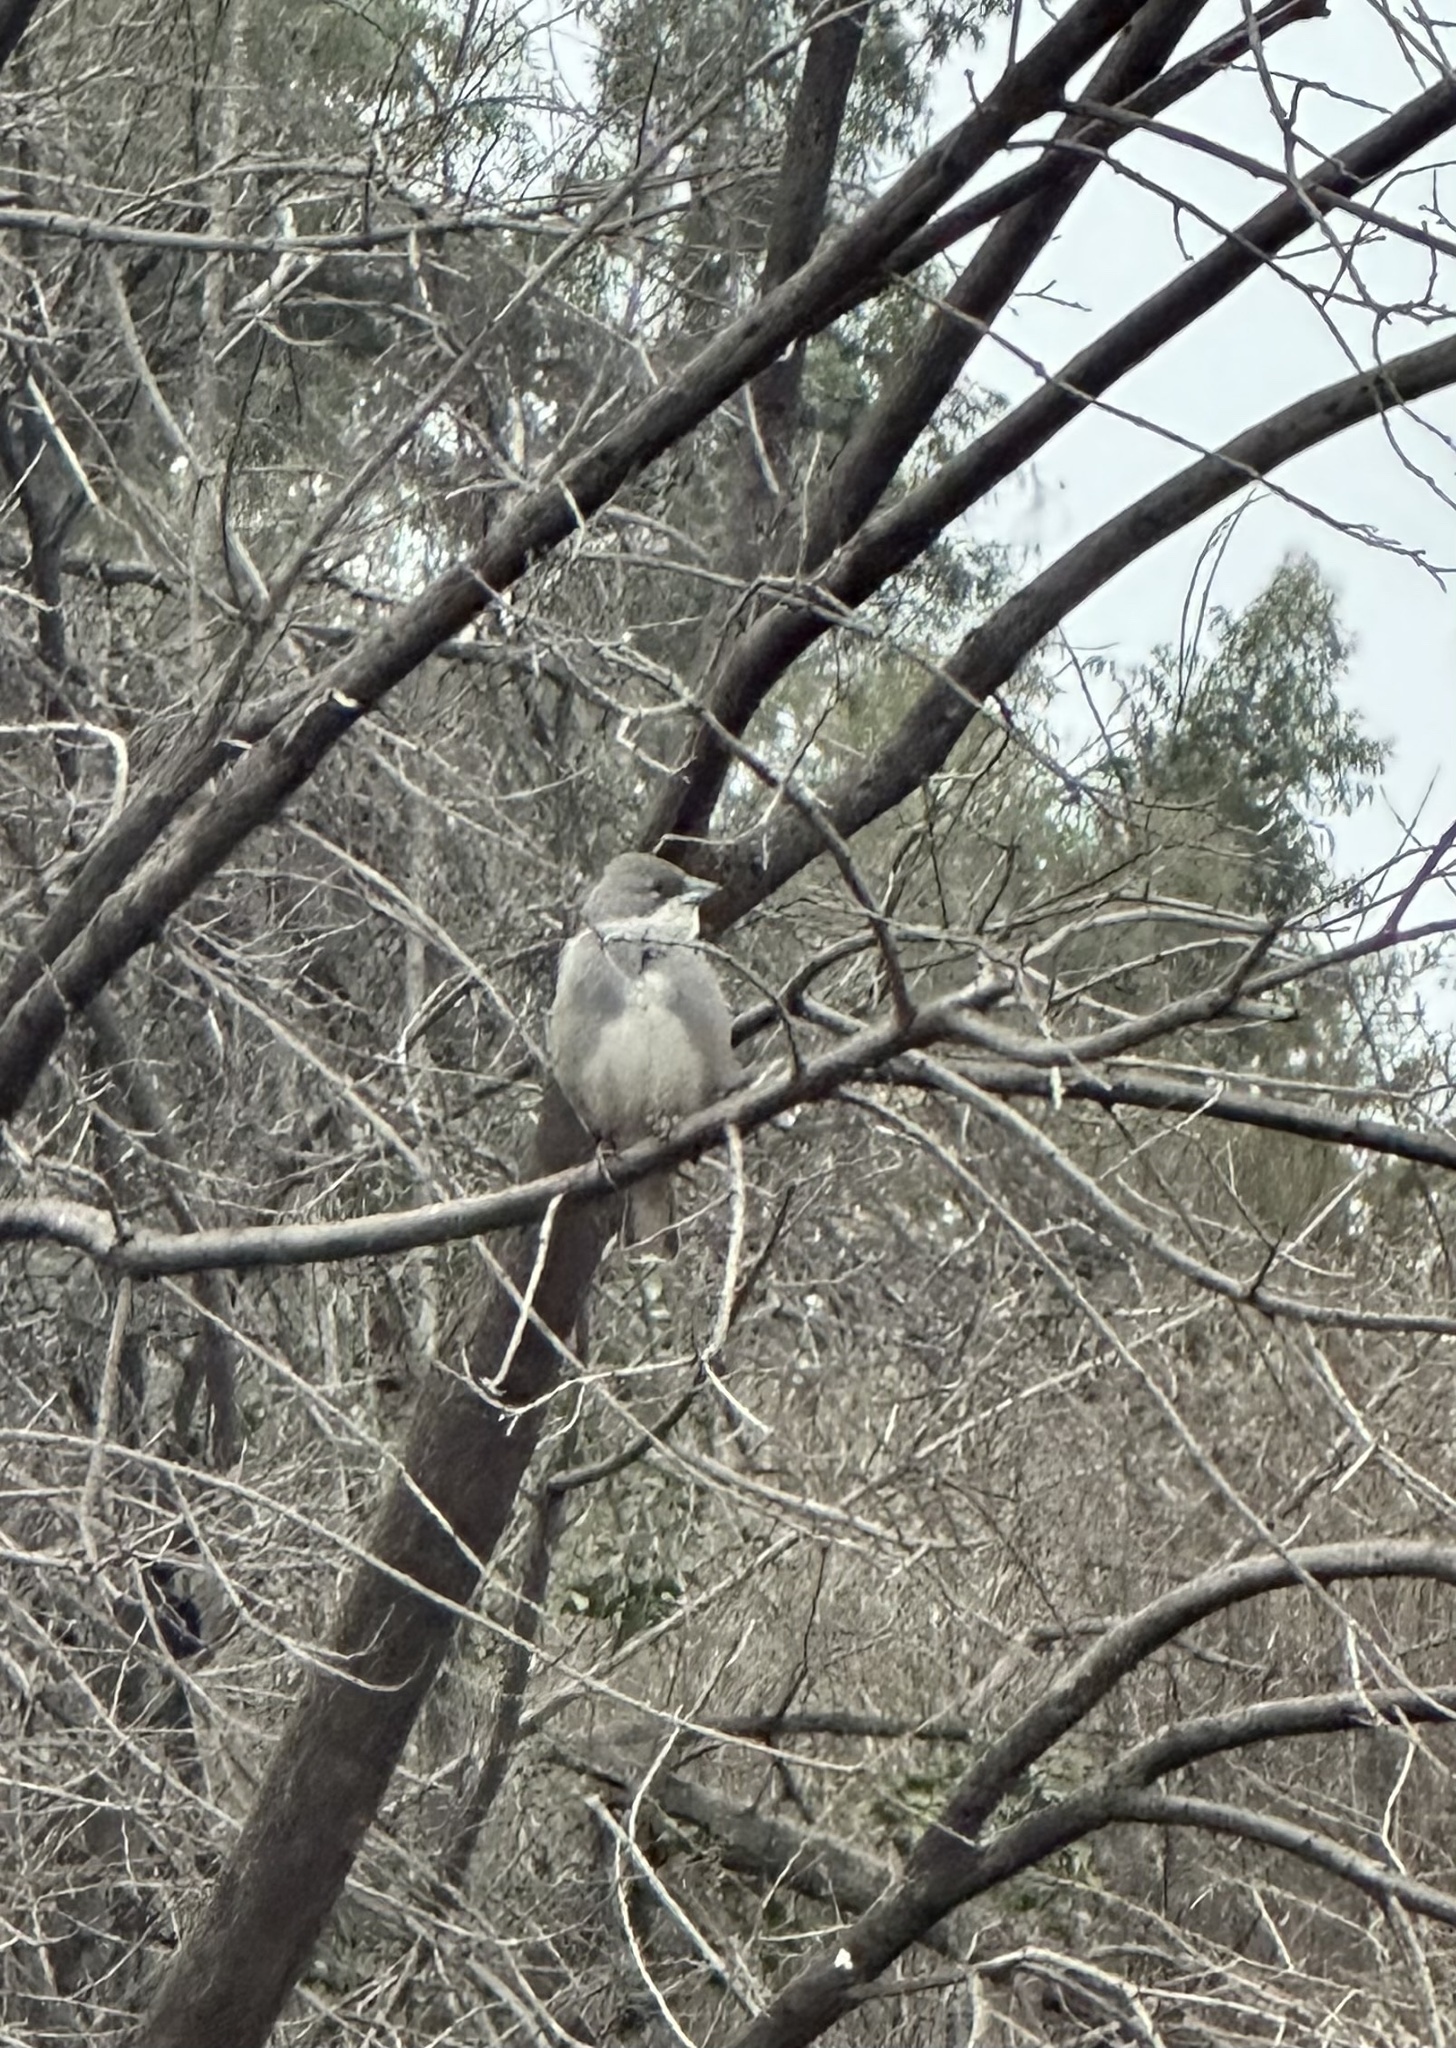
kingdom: Animalia
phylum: Chordata
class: Aves
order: Passeriformes
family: Thraupidae
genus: Diuca
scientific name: Diuca diuca
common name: Common diuca finch
